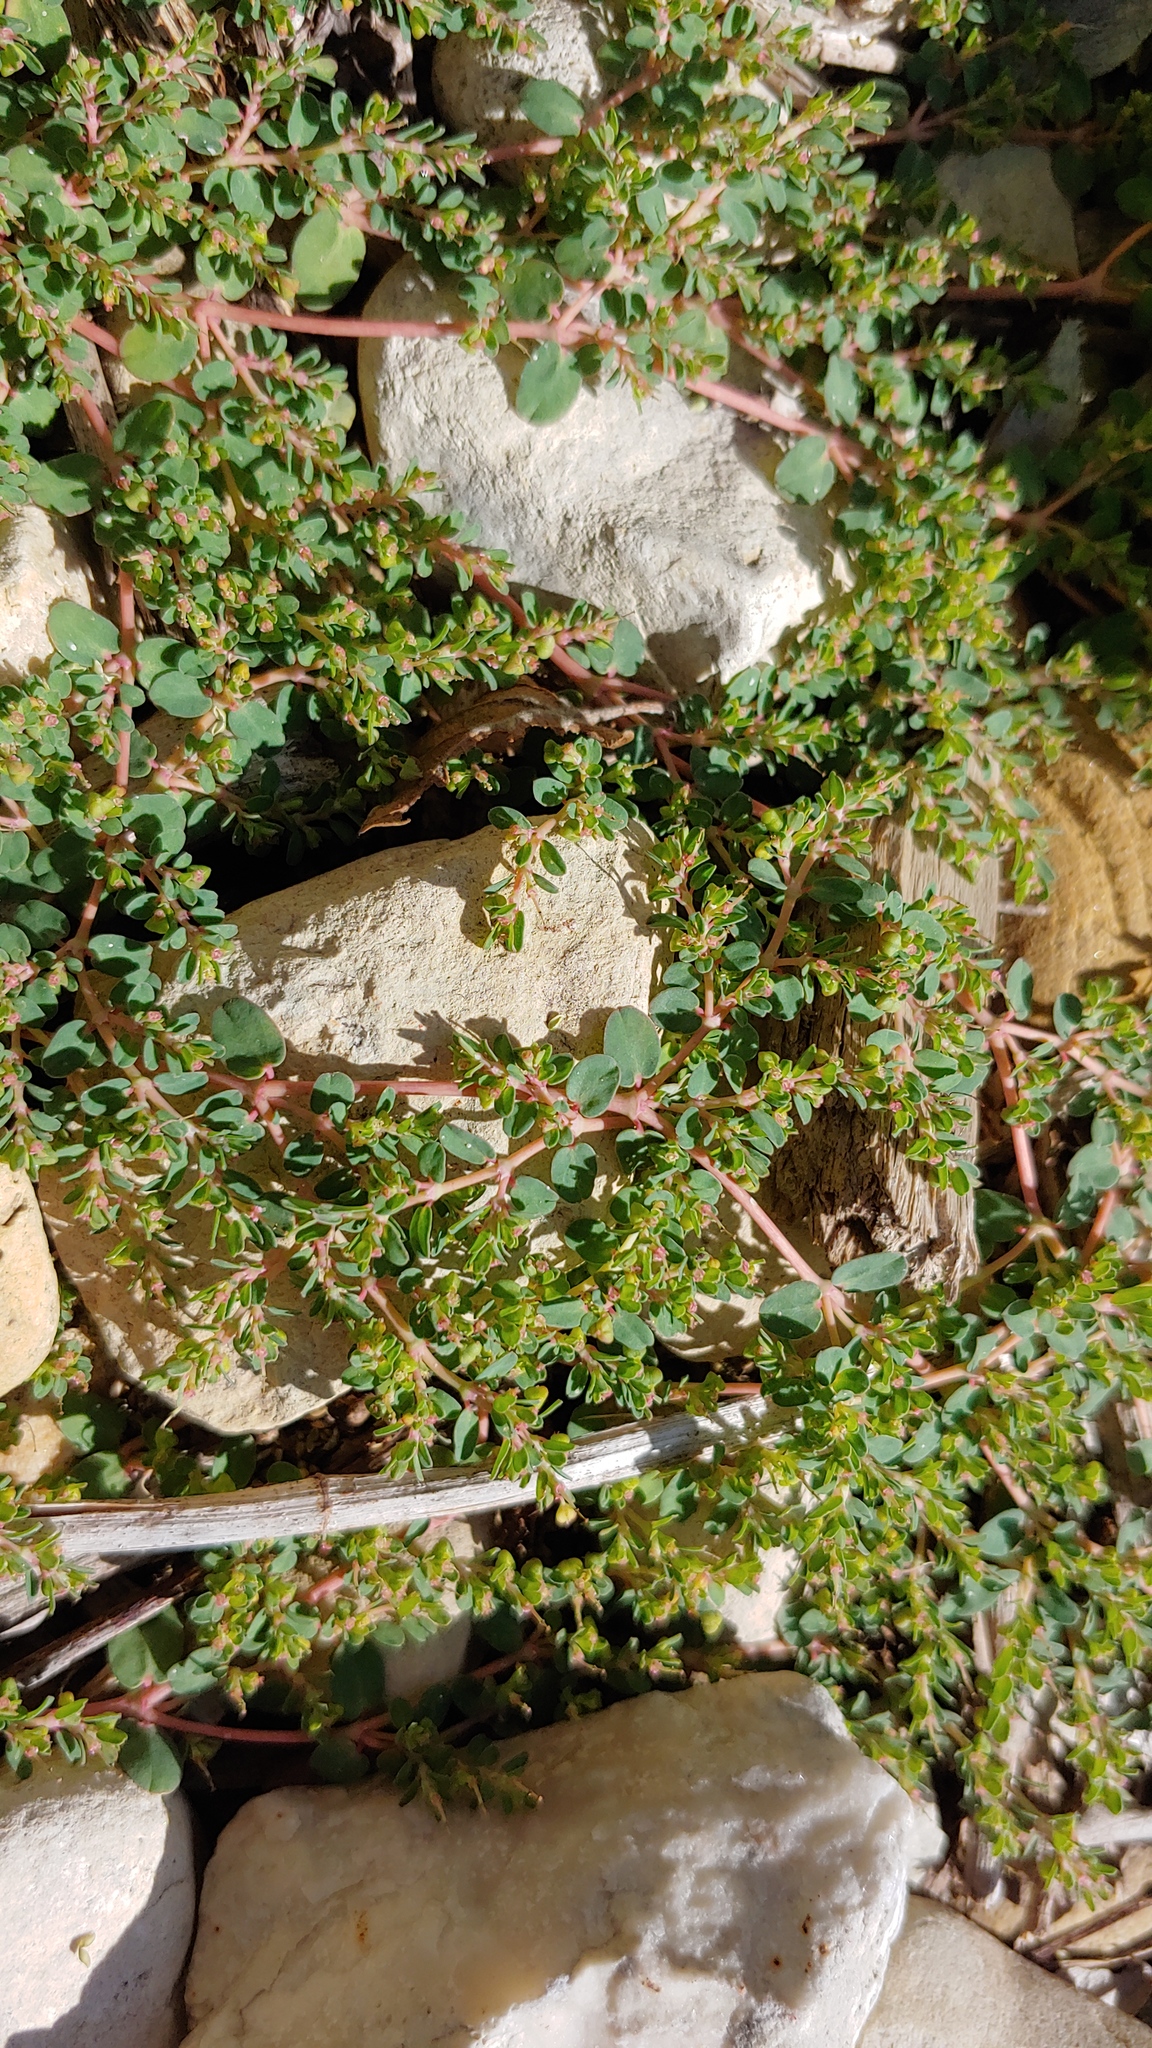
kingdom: Plantae
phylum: Tracheophyta
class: Magnoliopsida
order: Malpighiales
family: Euphorbiaceae
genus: Euphorbia
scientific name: Euphorbia serpens
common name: Matted sandmat
